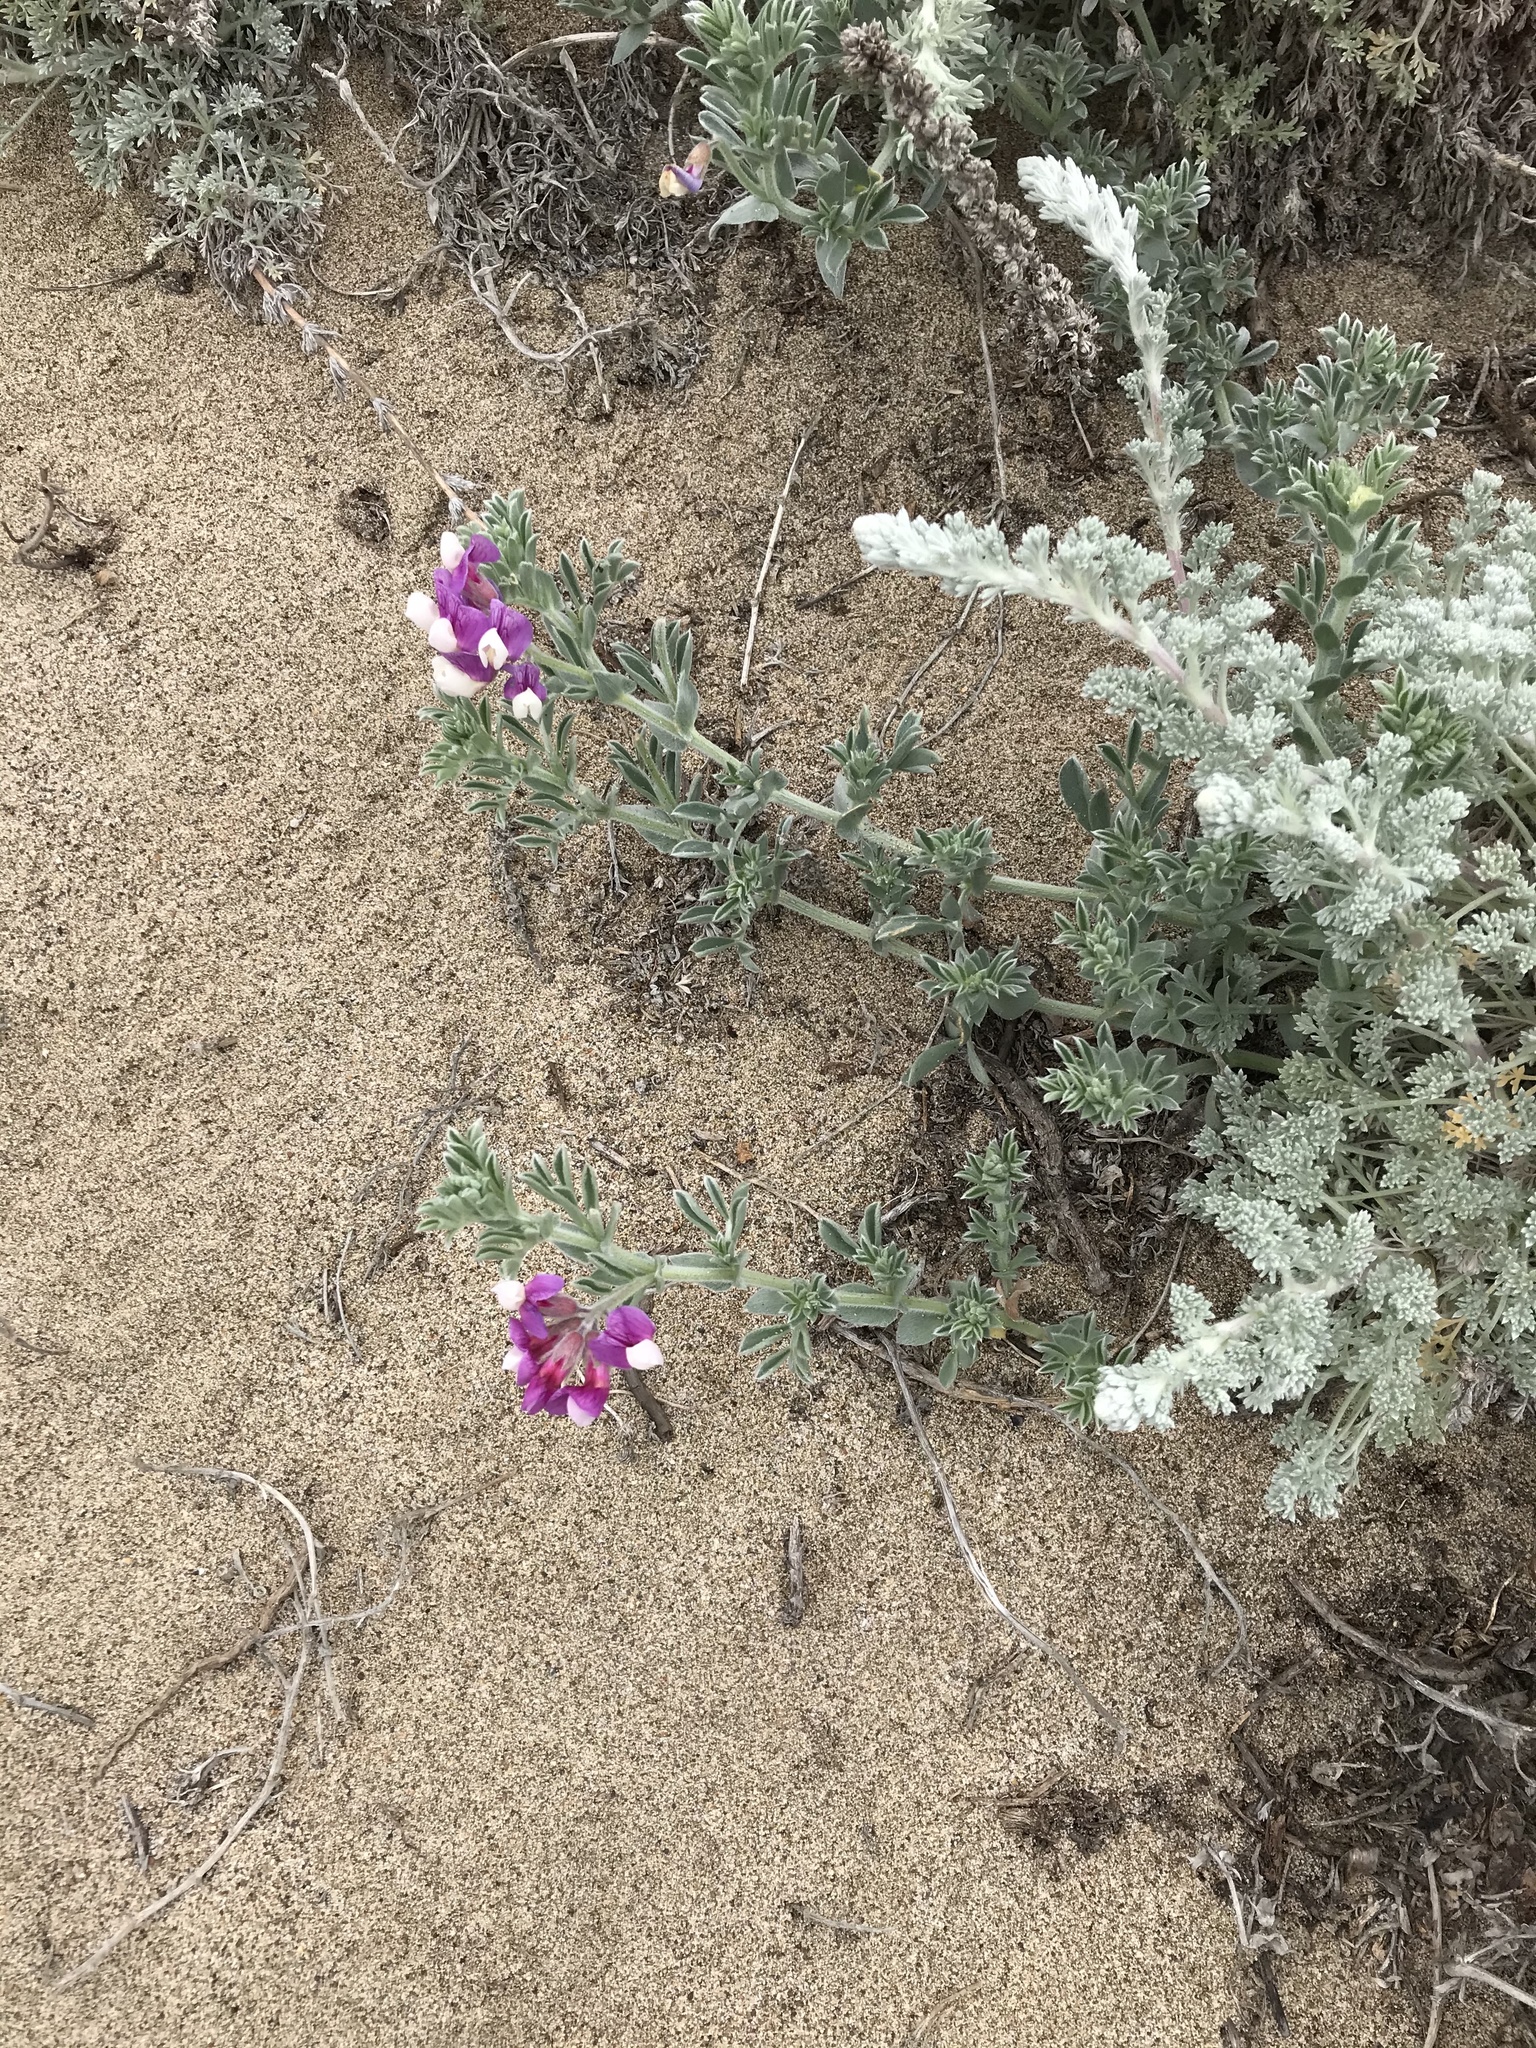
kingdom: Plantae
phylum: Tracheophyta
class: Magnoliopsida
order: Fabales
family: Fabaceae
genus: Lathyrus
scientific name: Lathyrus littoralis
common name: Dune sweet pea
